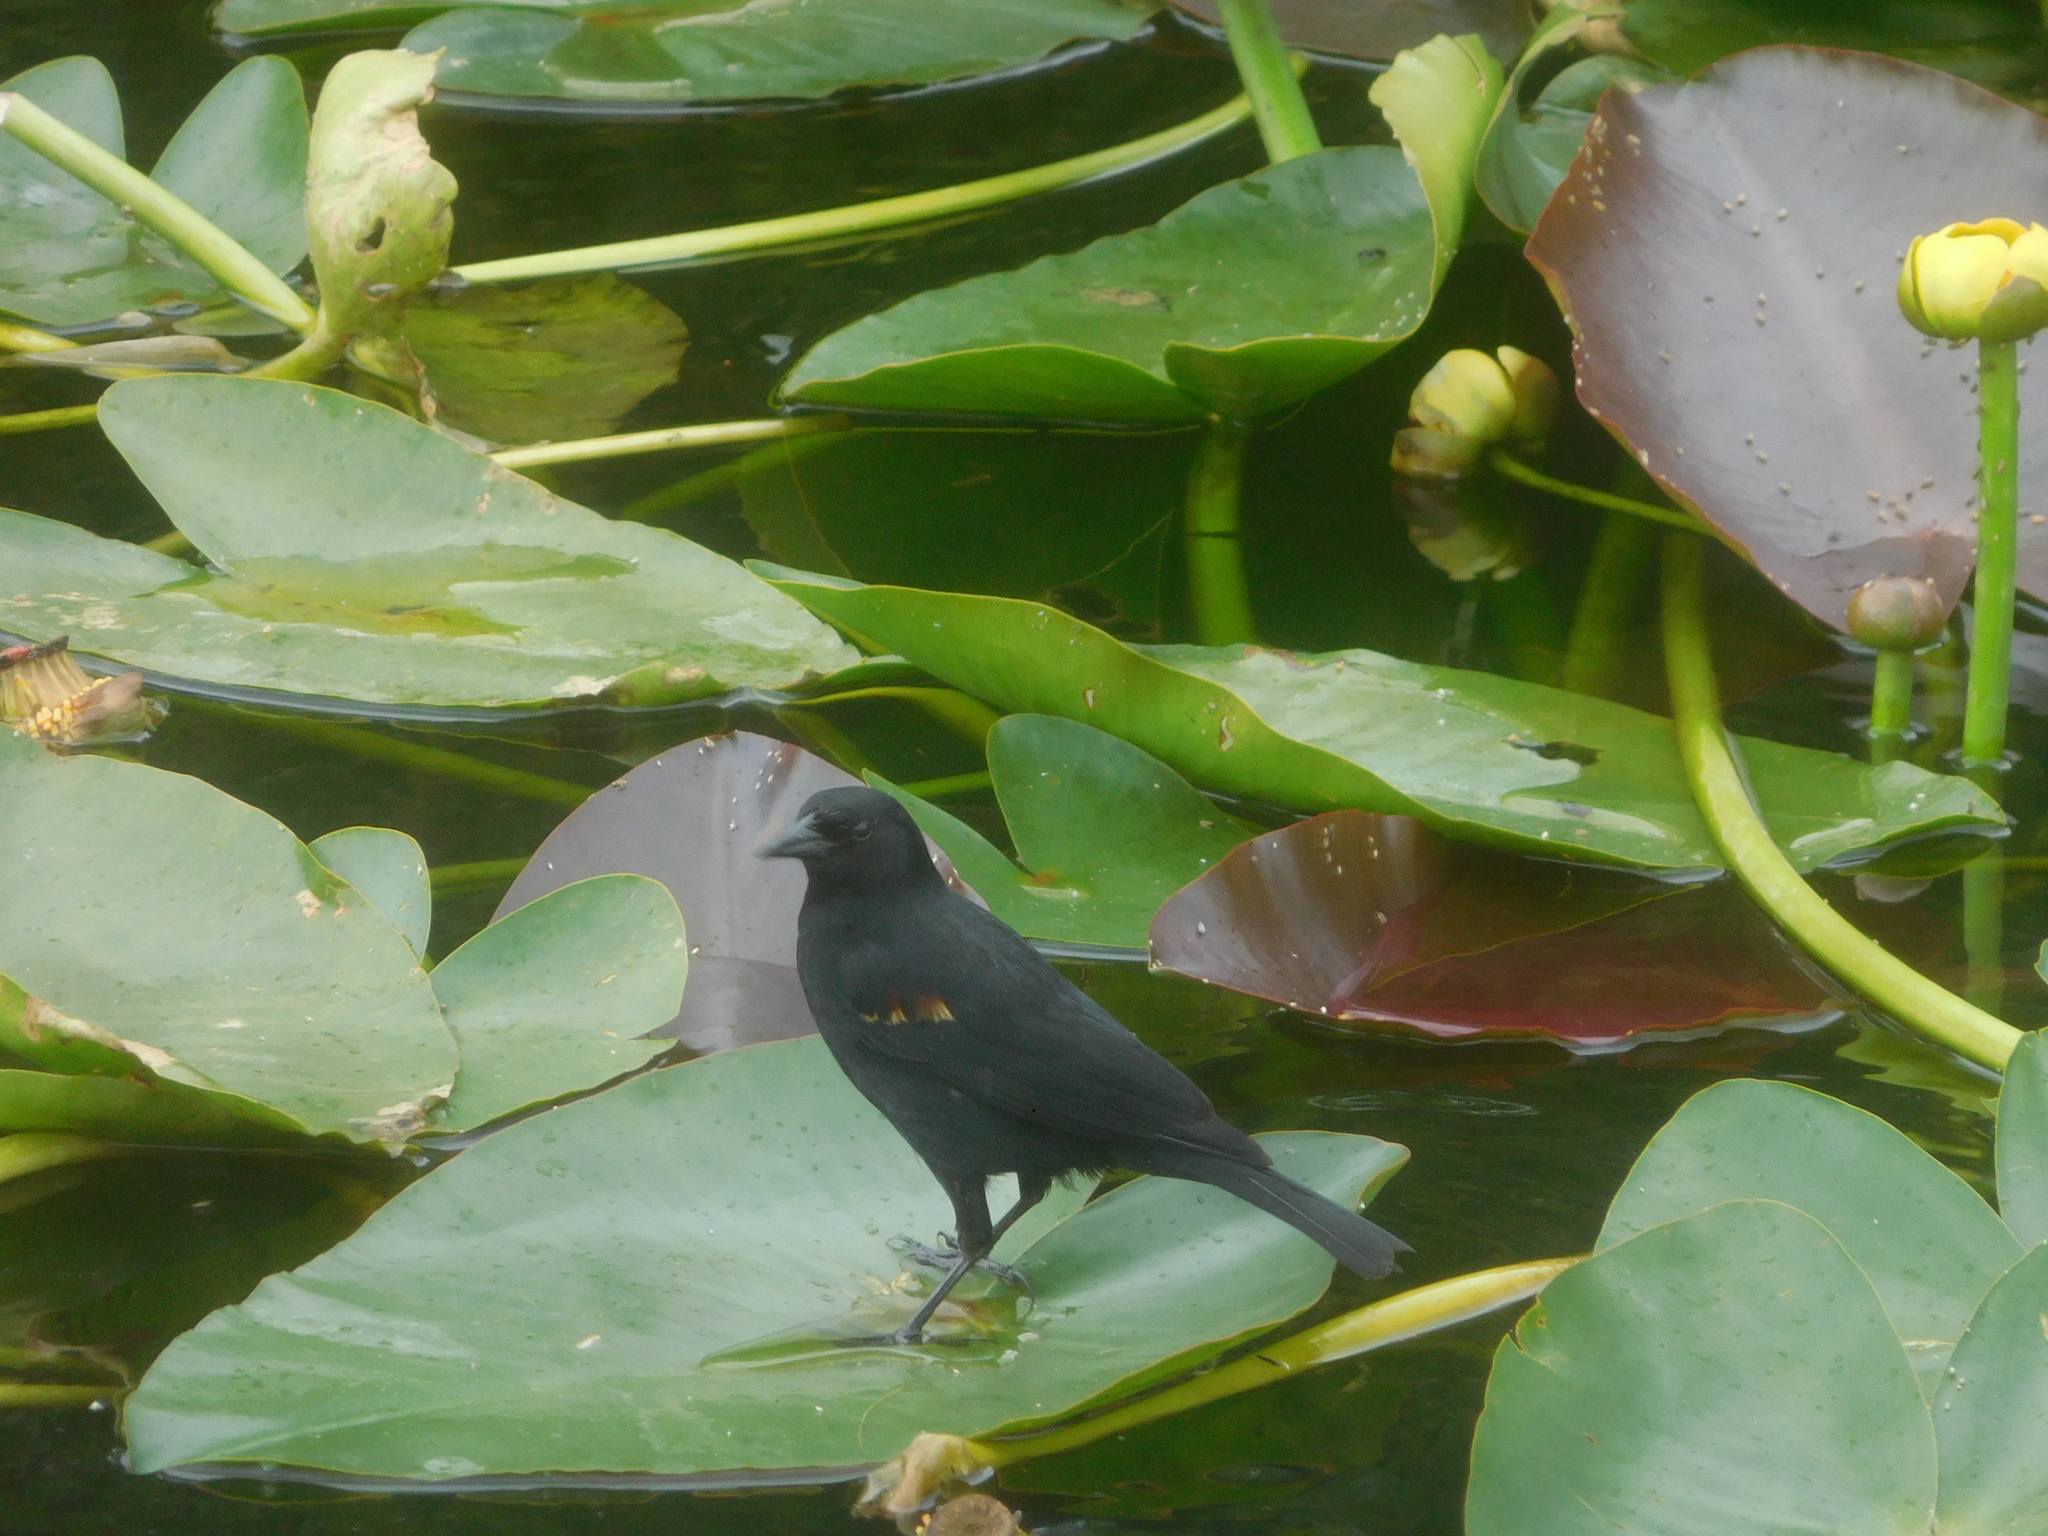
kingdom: Animalia
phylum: Chordata
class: Aves
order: Passeriformes
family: Icteridae
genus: Agelaius
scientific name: Agelaius phoeniceus
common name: Red-winged blackbird
